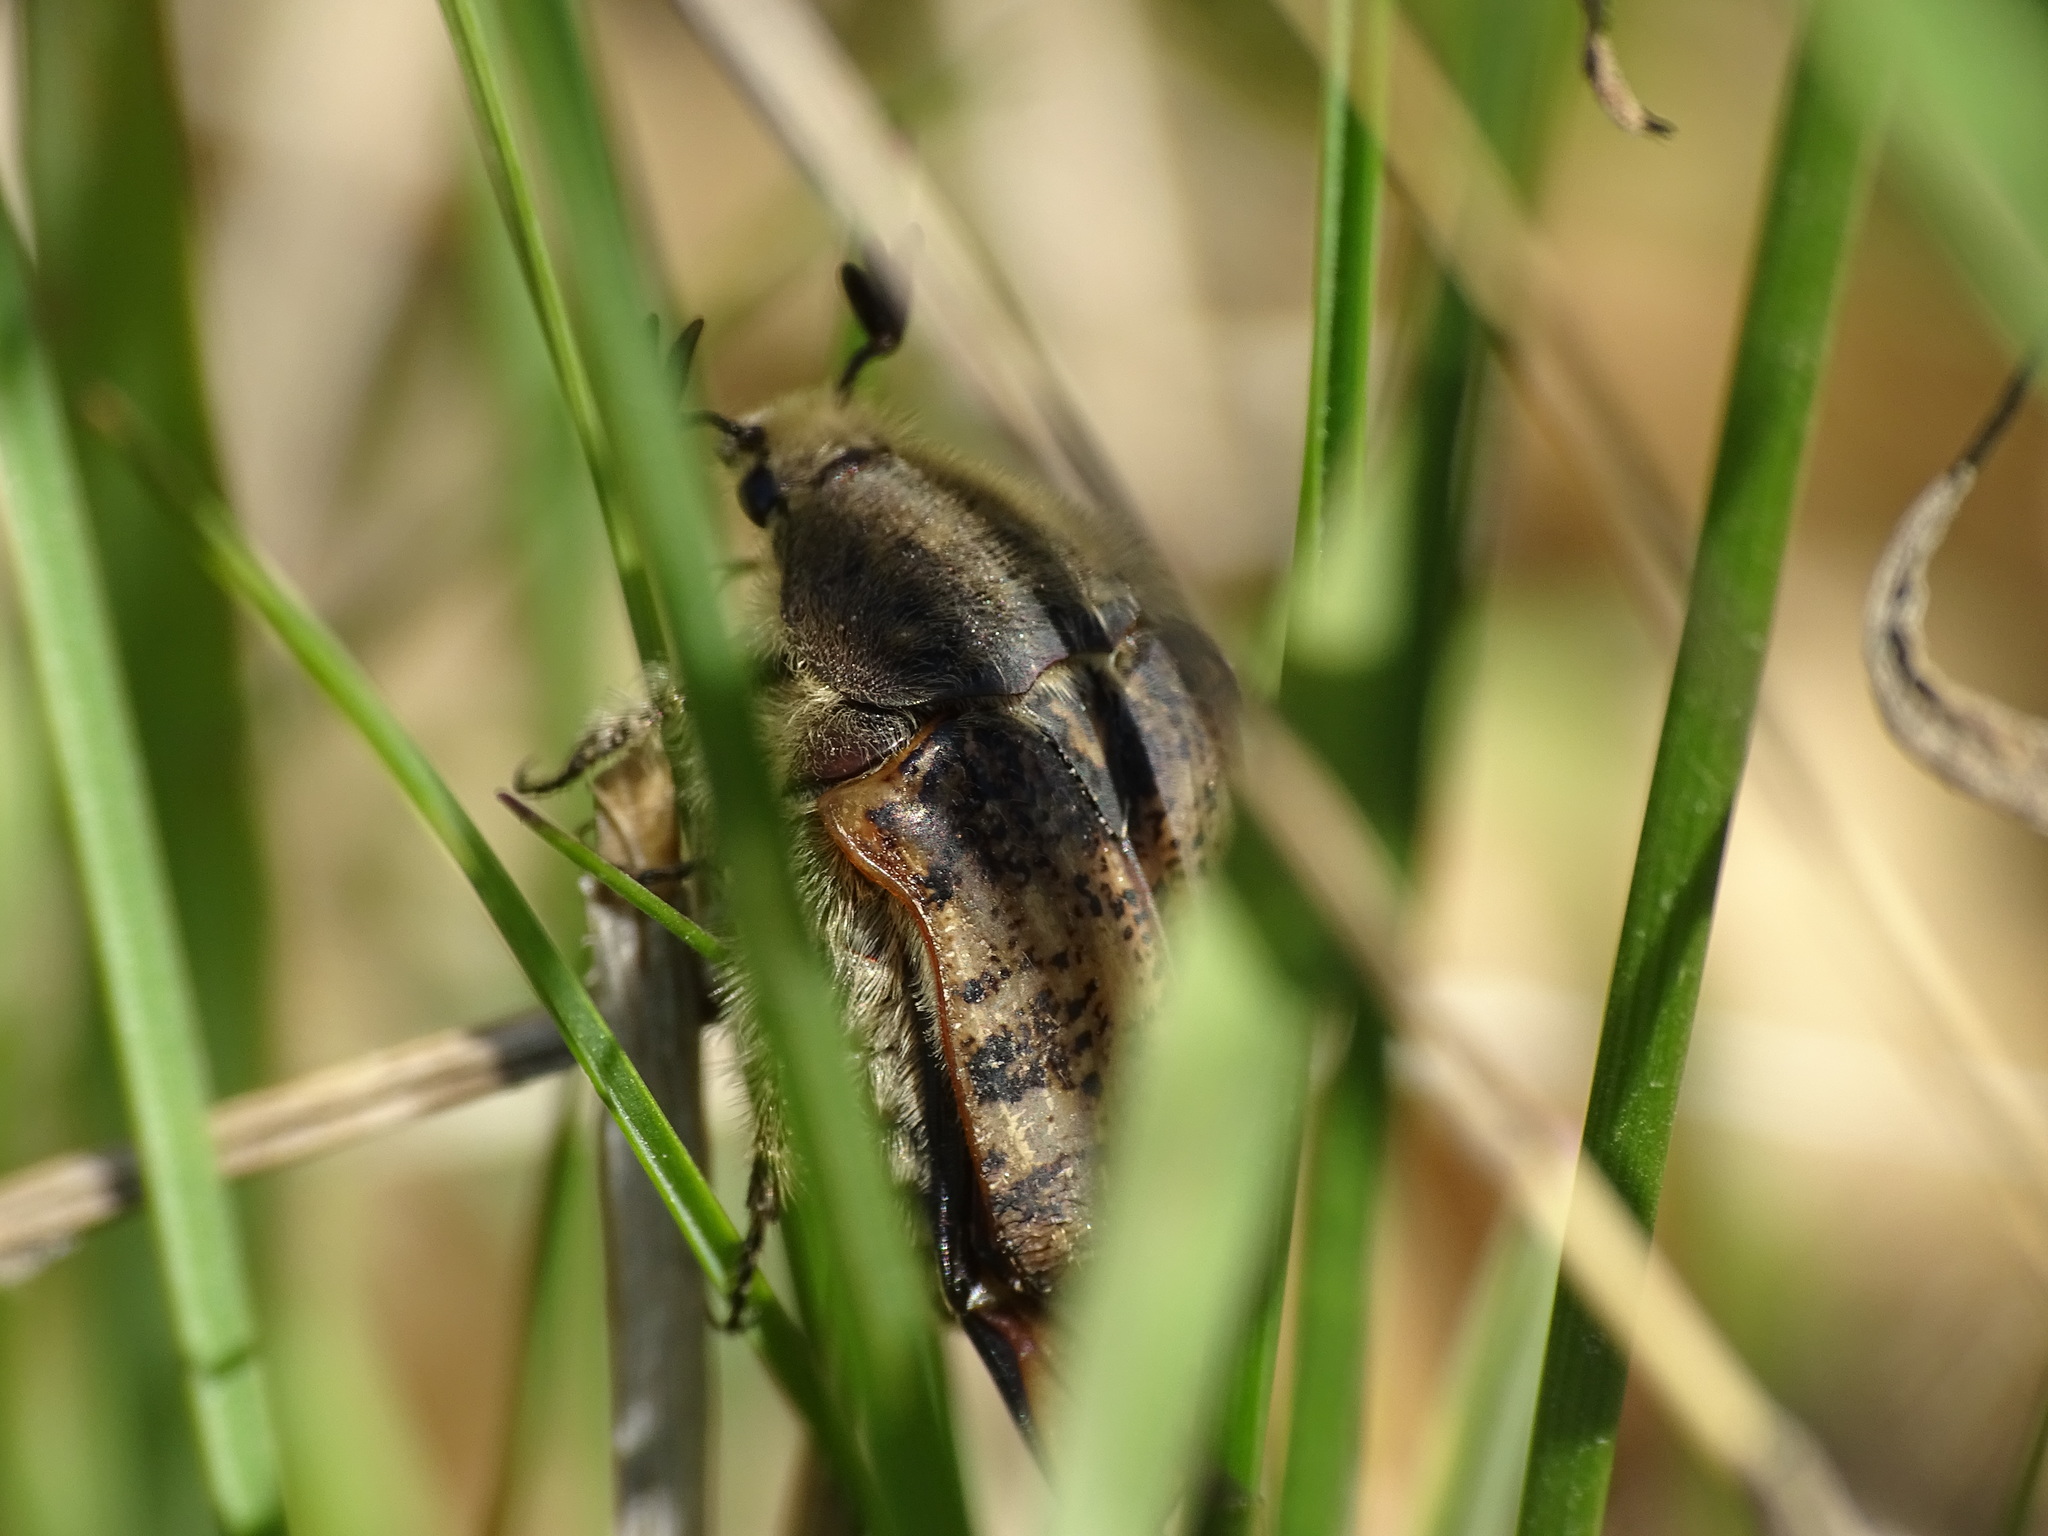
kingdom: Animalia
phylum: Arthropoda
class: Insecta
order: Coleoptera
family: Scarabaeidae
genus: Euphoria
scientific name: Euphoria inda
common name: Bumble flower beetle
